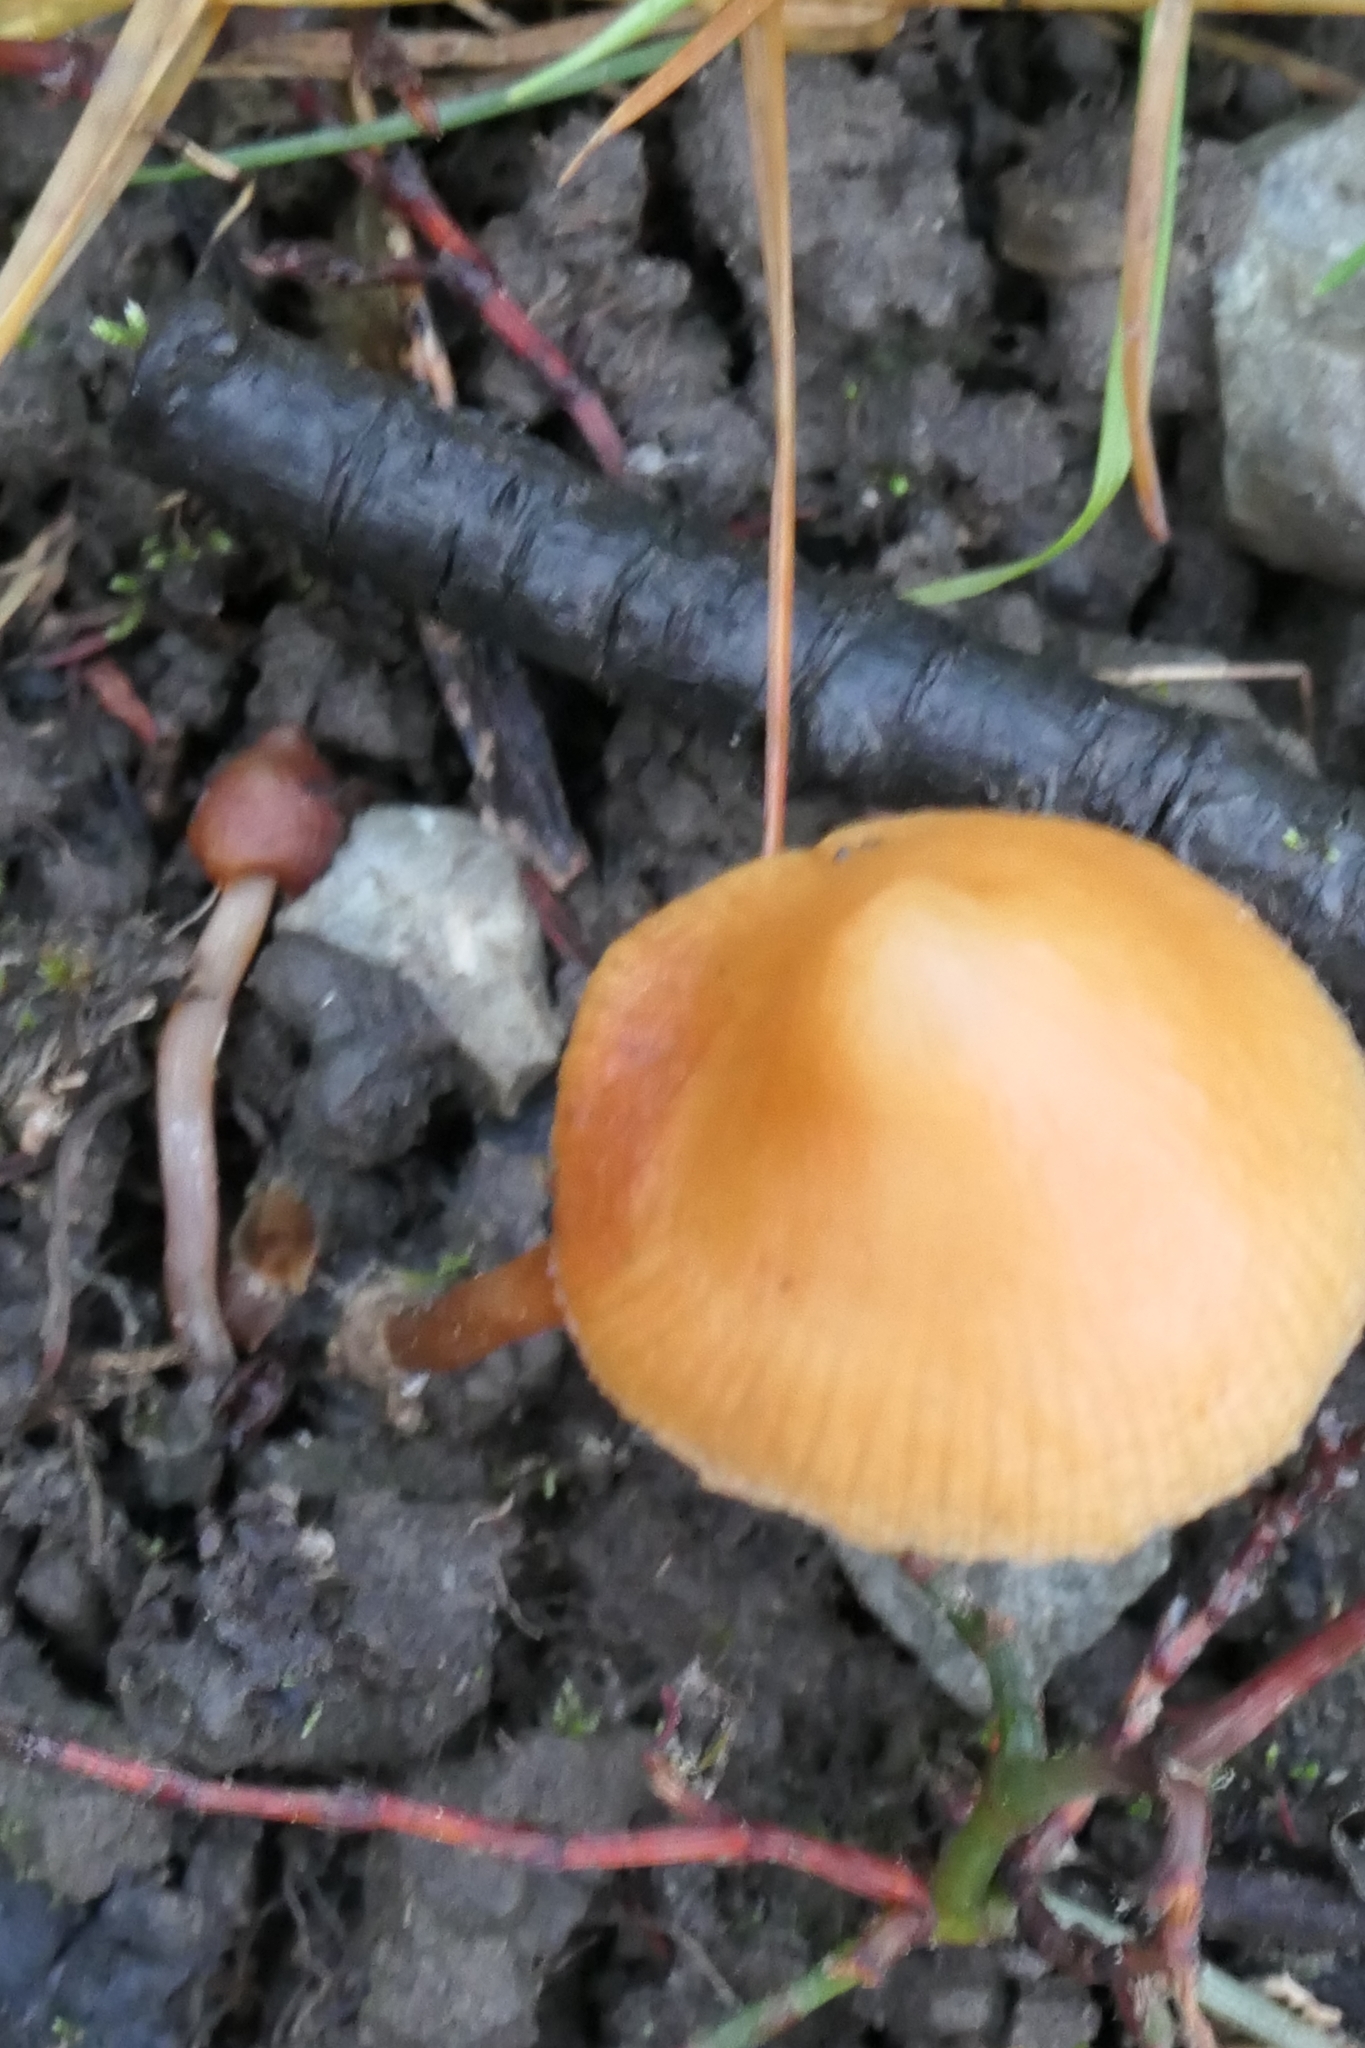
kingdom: Fungi
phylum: Basidiomycota
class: Agaricomycetes
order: Agaricales
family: Tubariaceae
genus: Tubaria
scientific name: Tubaria furfuracea
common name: Scurfy twiglet
